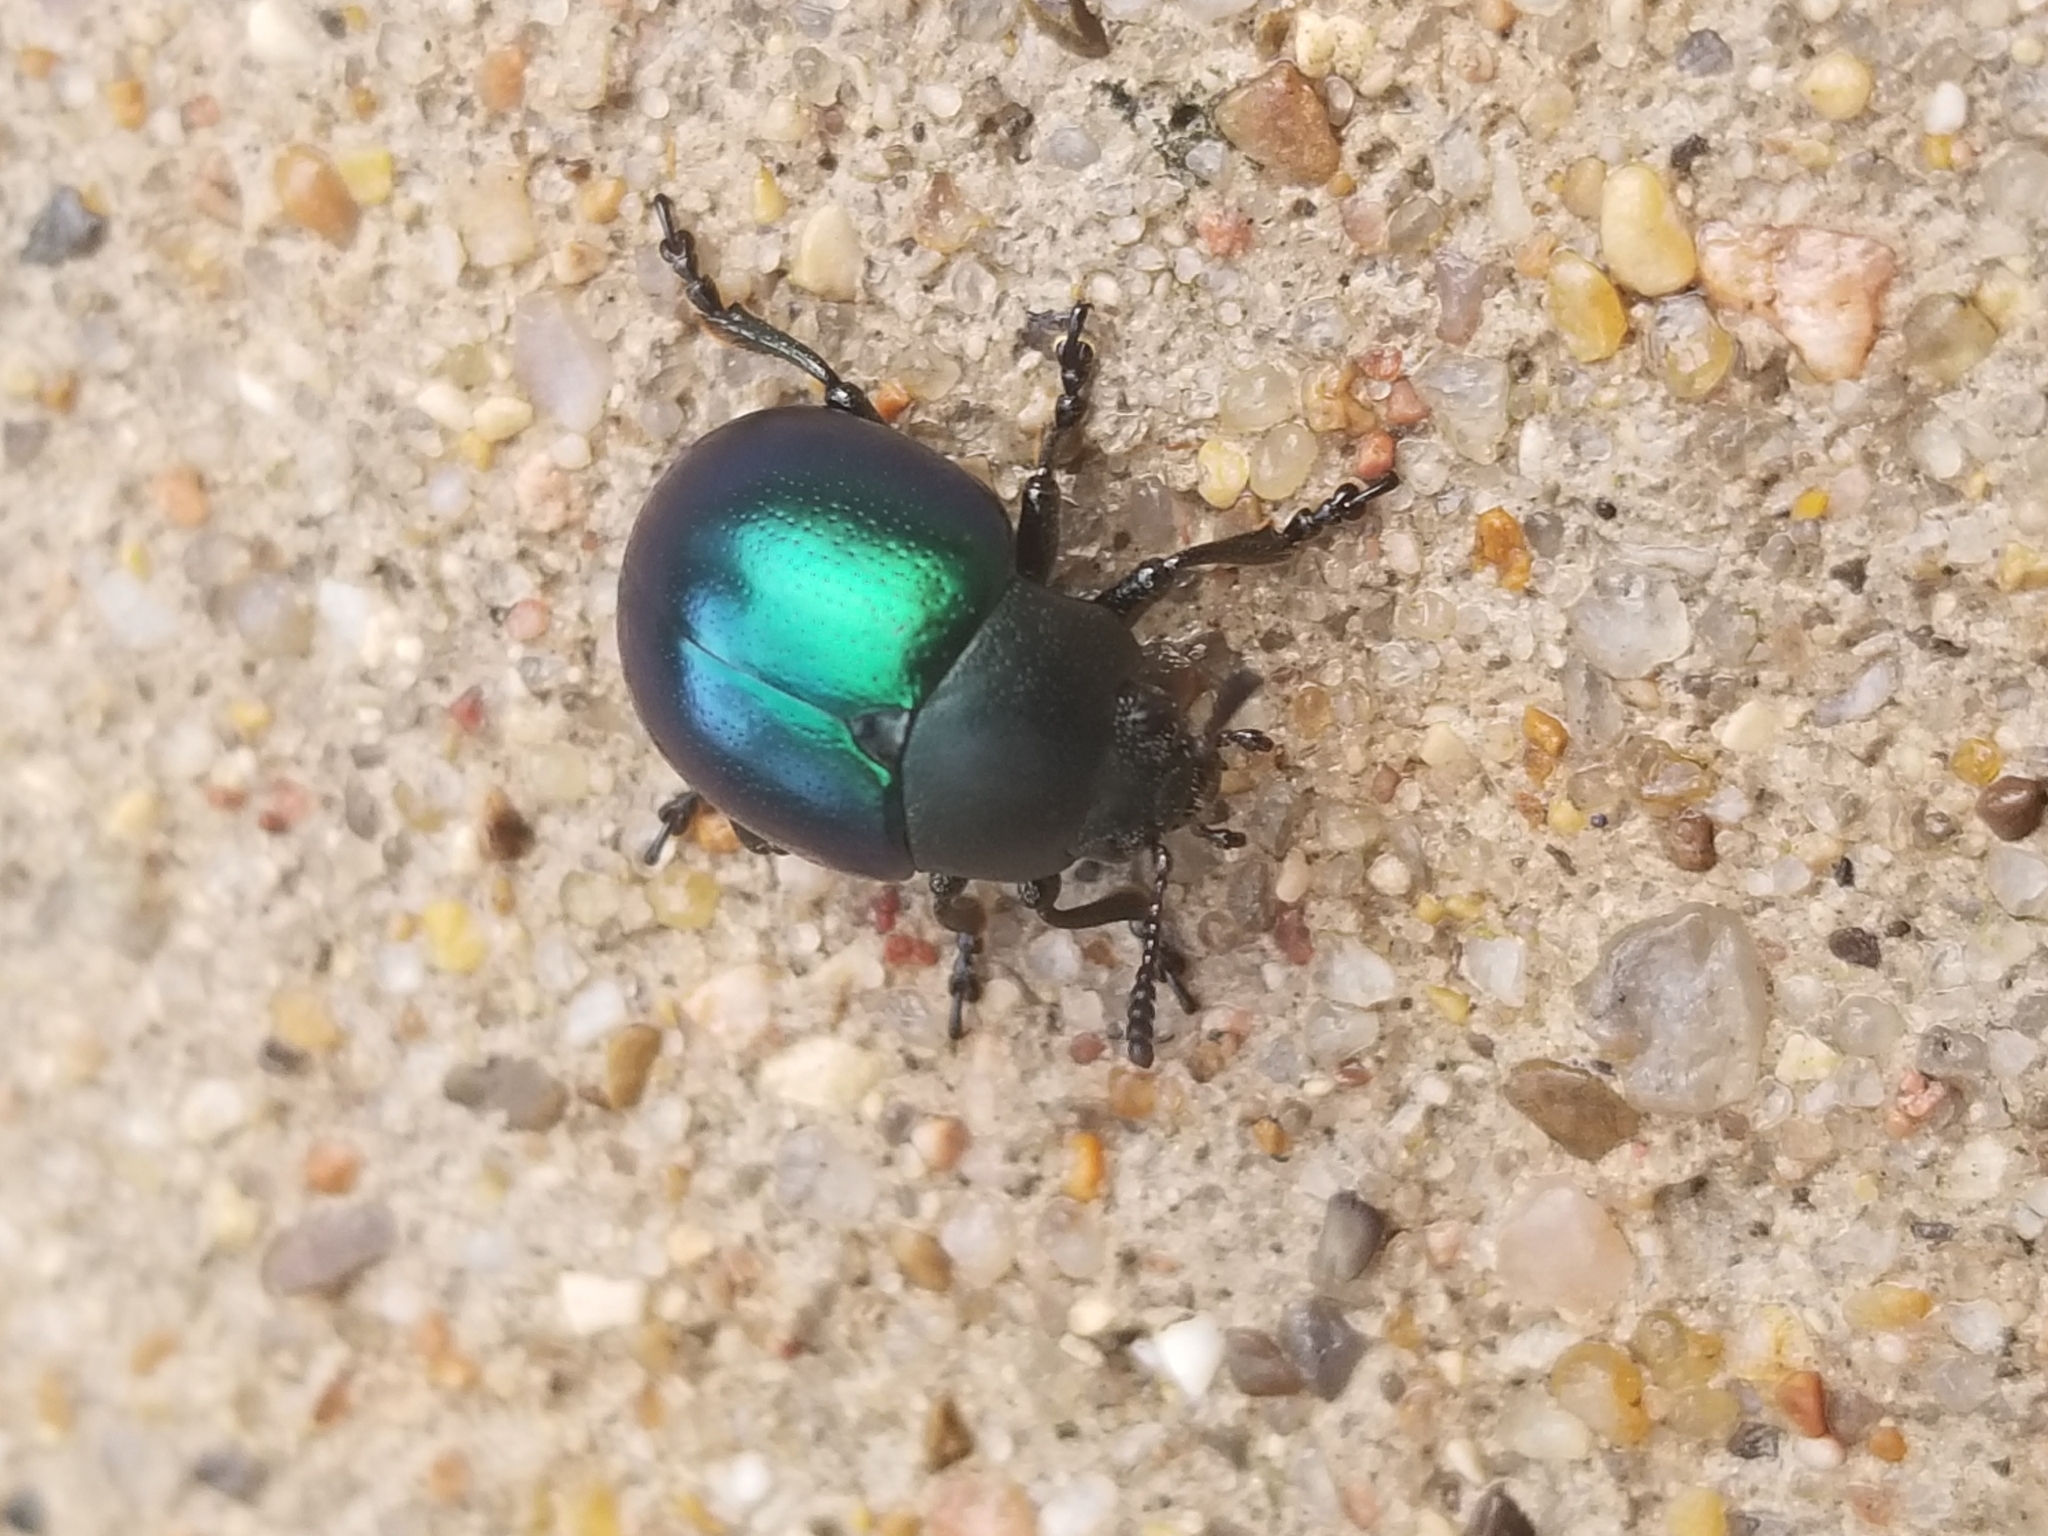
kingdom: Animalia
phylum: Arthropoda
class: Insecta
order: Coleoptera
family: Chrysomelidae
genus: Leptinotarsa
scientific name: Leptinotarsa haldemani
